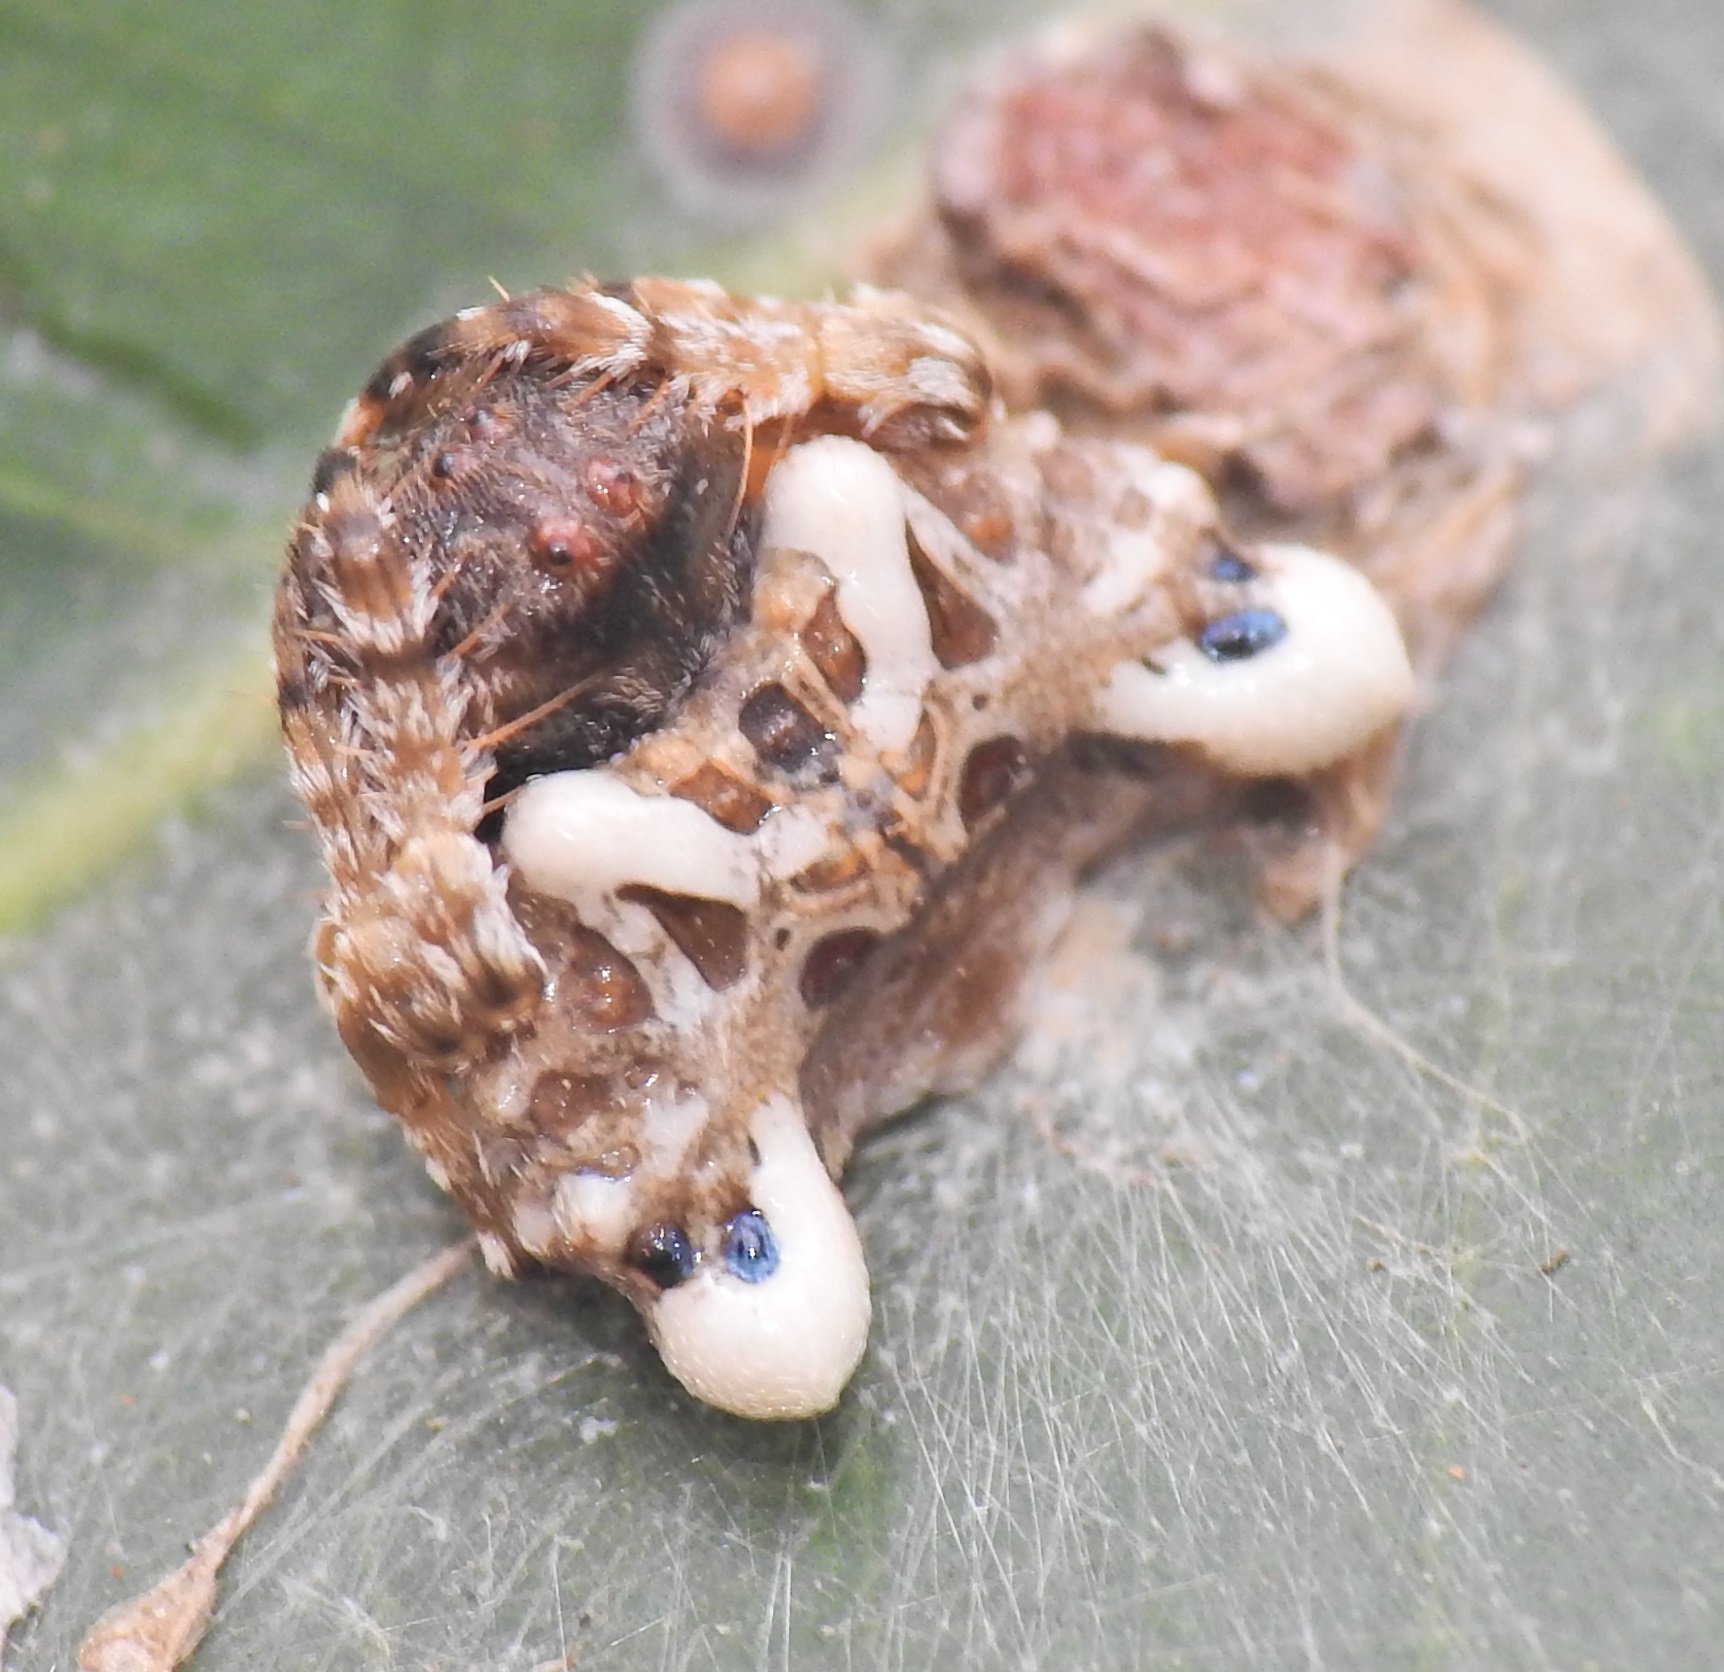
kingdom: Animalia
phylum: Arthropoda
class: Arachnida
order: Araneae
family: Arkyidae
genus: Arkys
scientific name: Arkys curtulus
